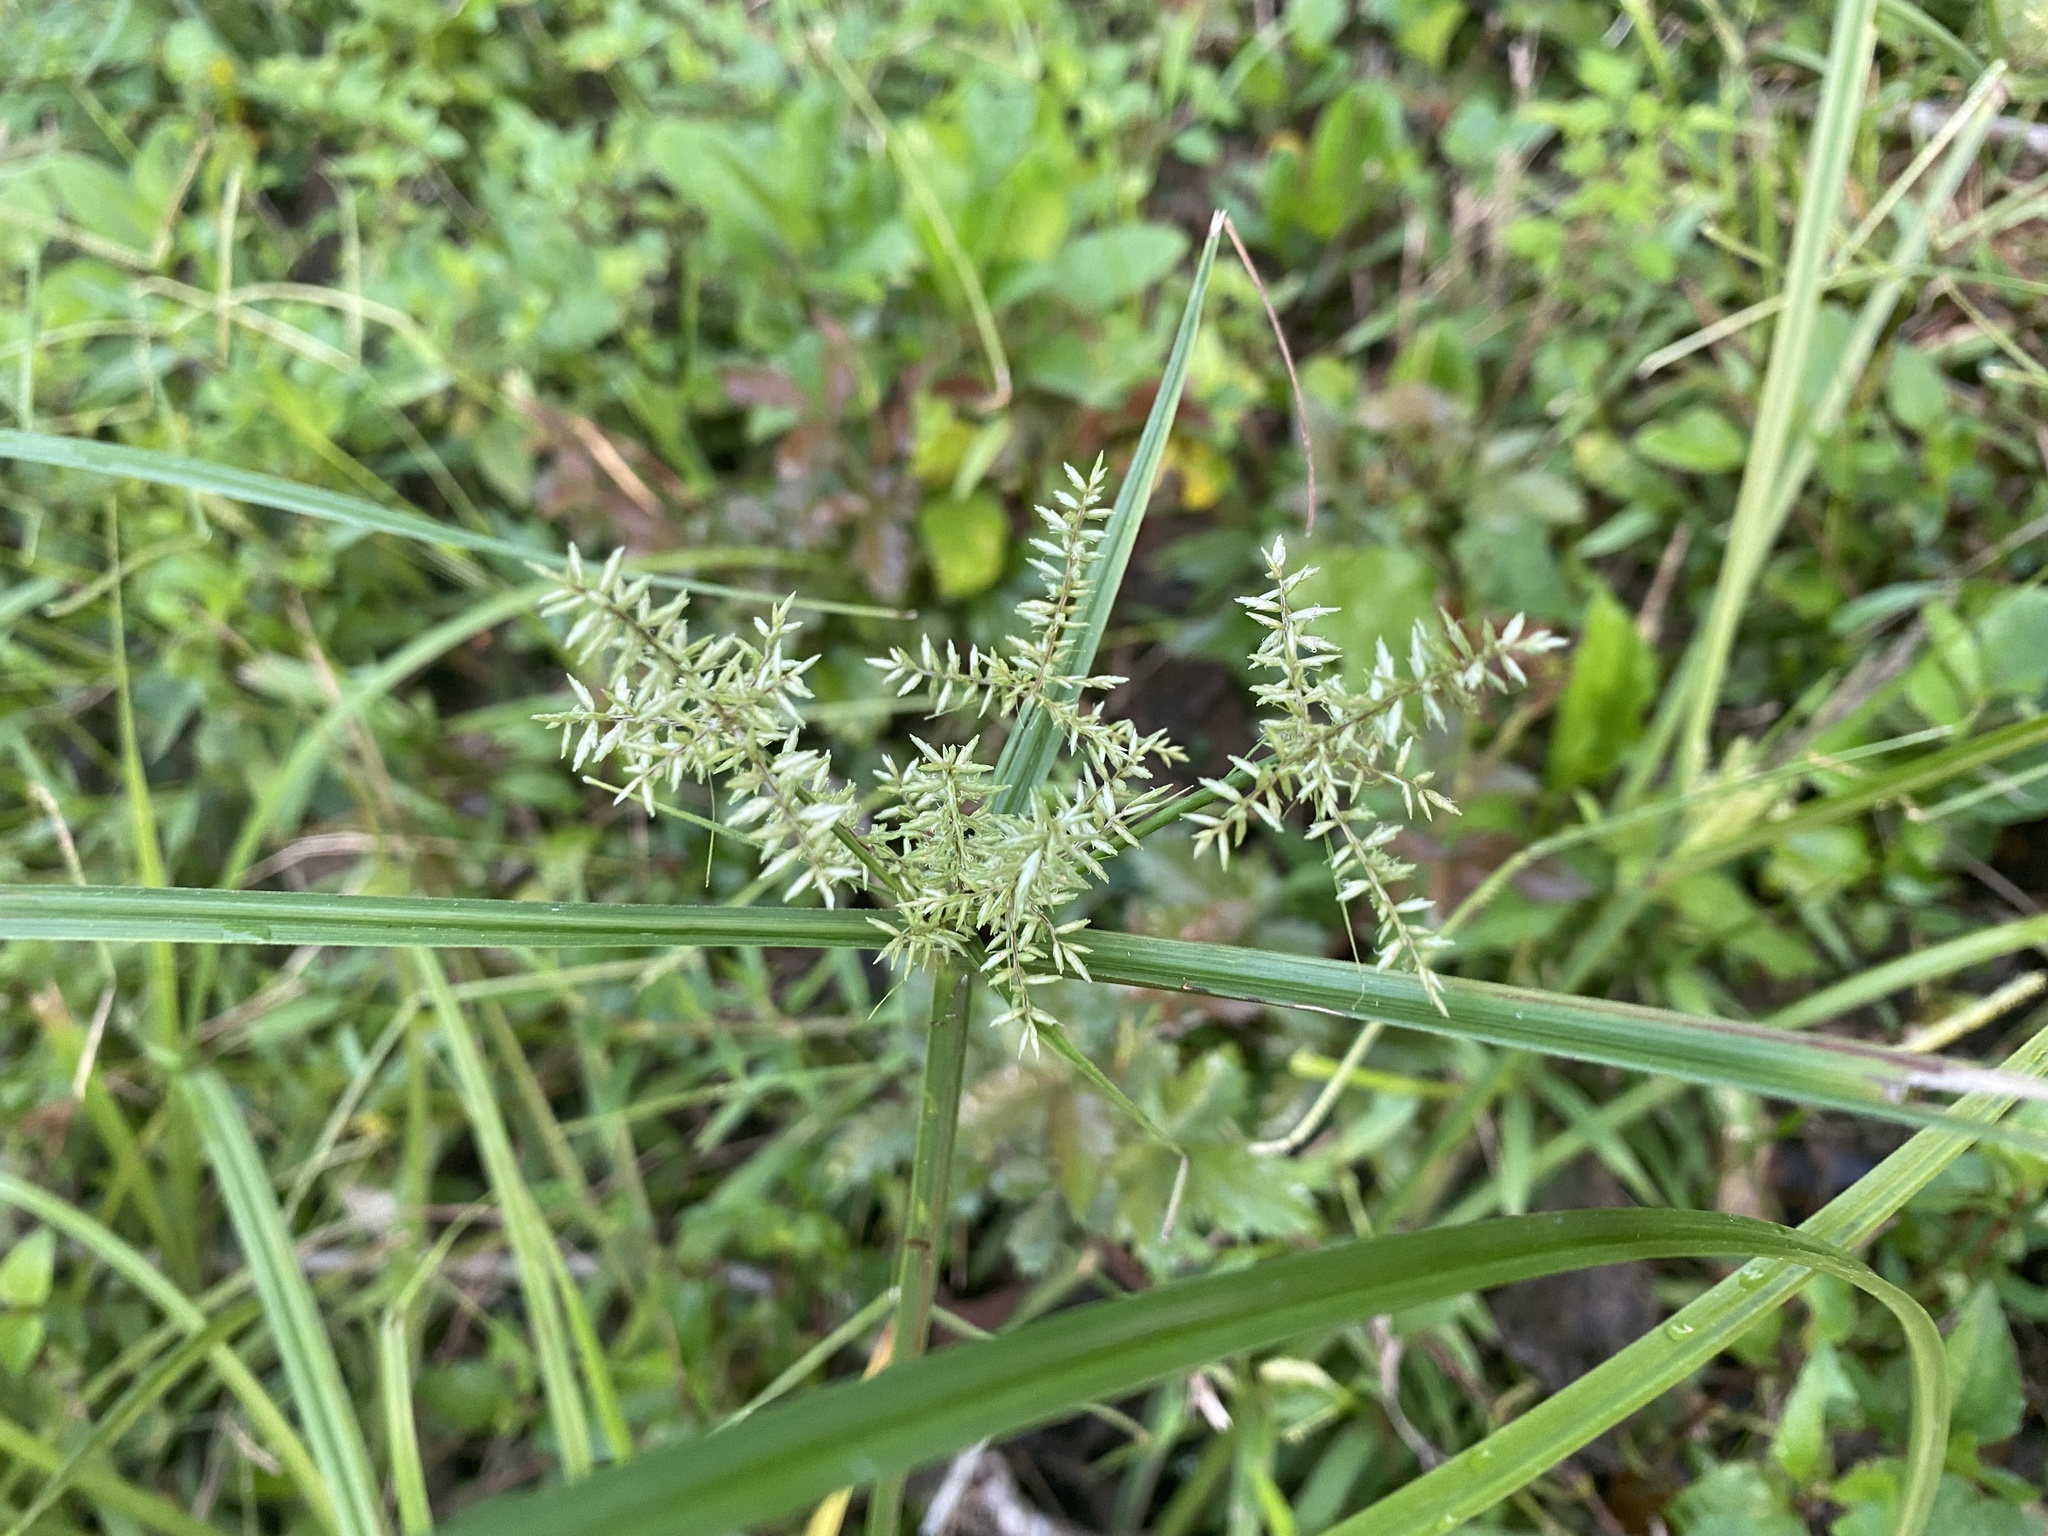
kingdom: Plantae
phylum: Tracheophyta
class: Liliopsida
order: Poales
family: Cyperaceae
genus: Cyperus
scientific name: Cyperus digitatus
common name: Finger flatsedge
